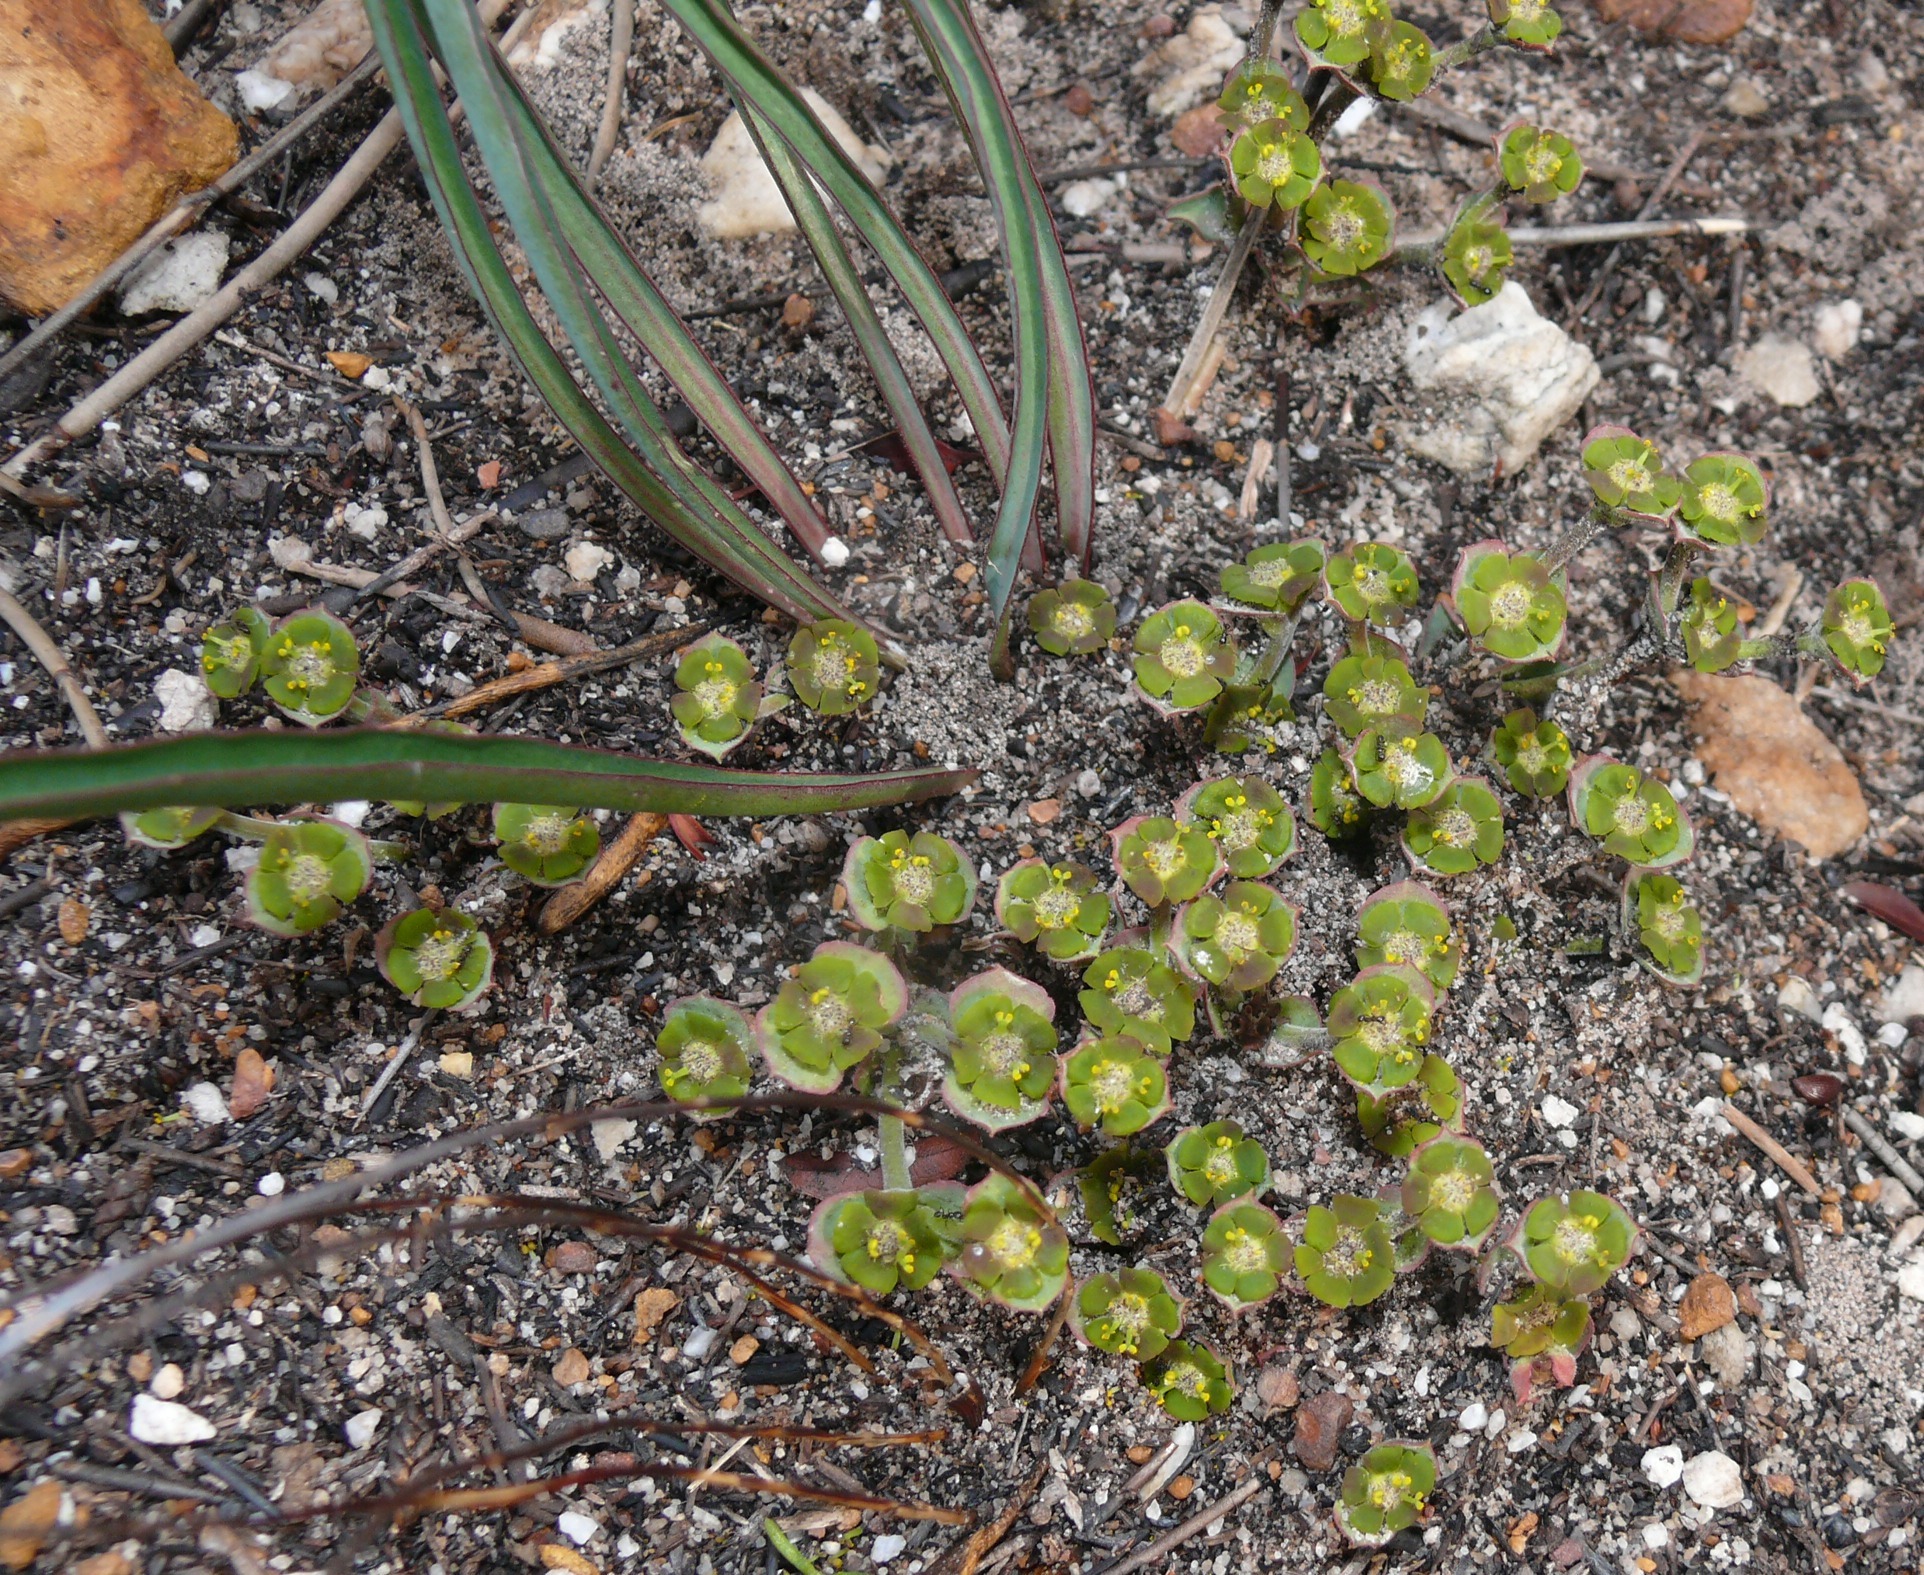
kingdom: Plantae
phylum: Tracheophyta
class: Magnoliopsida
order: Malpighiales
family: Euphorbiaceae
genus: Euphorbia
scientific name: Euphorbia silenifolia
